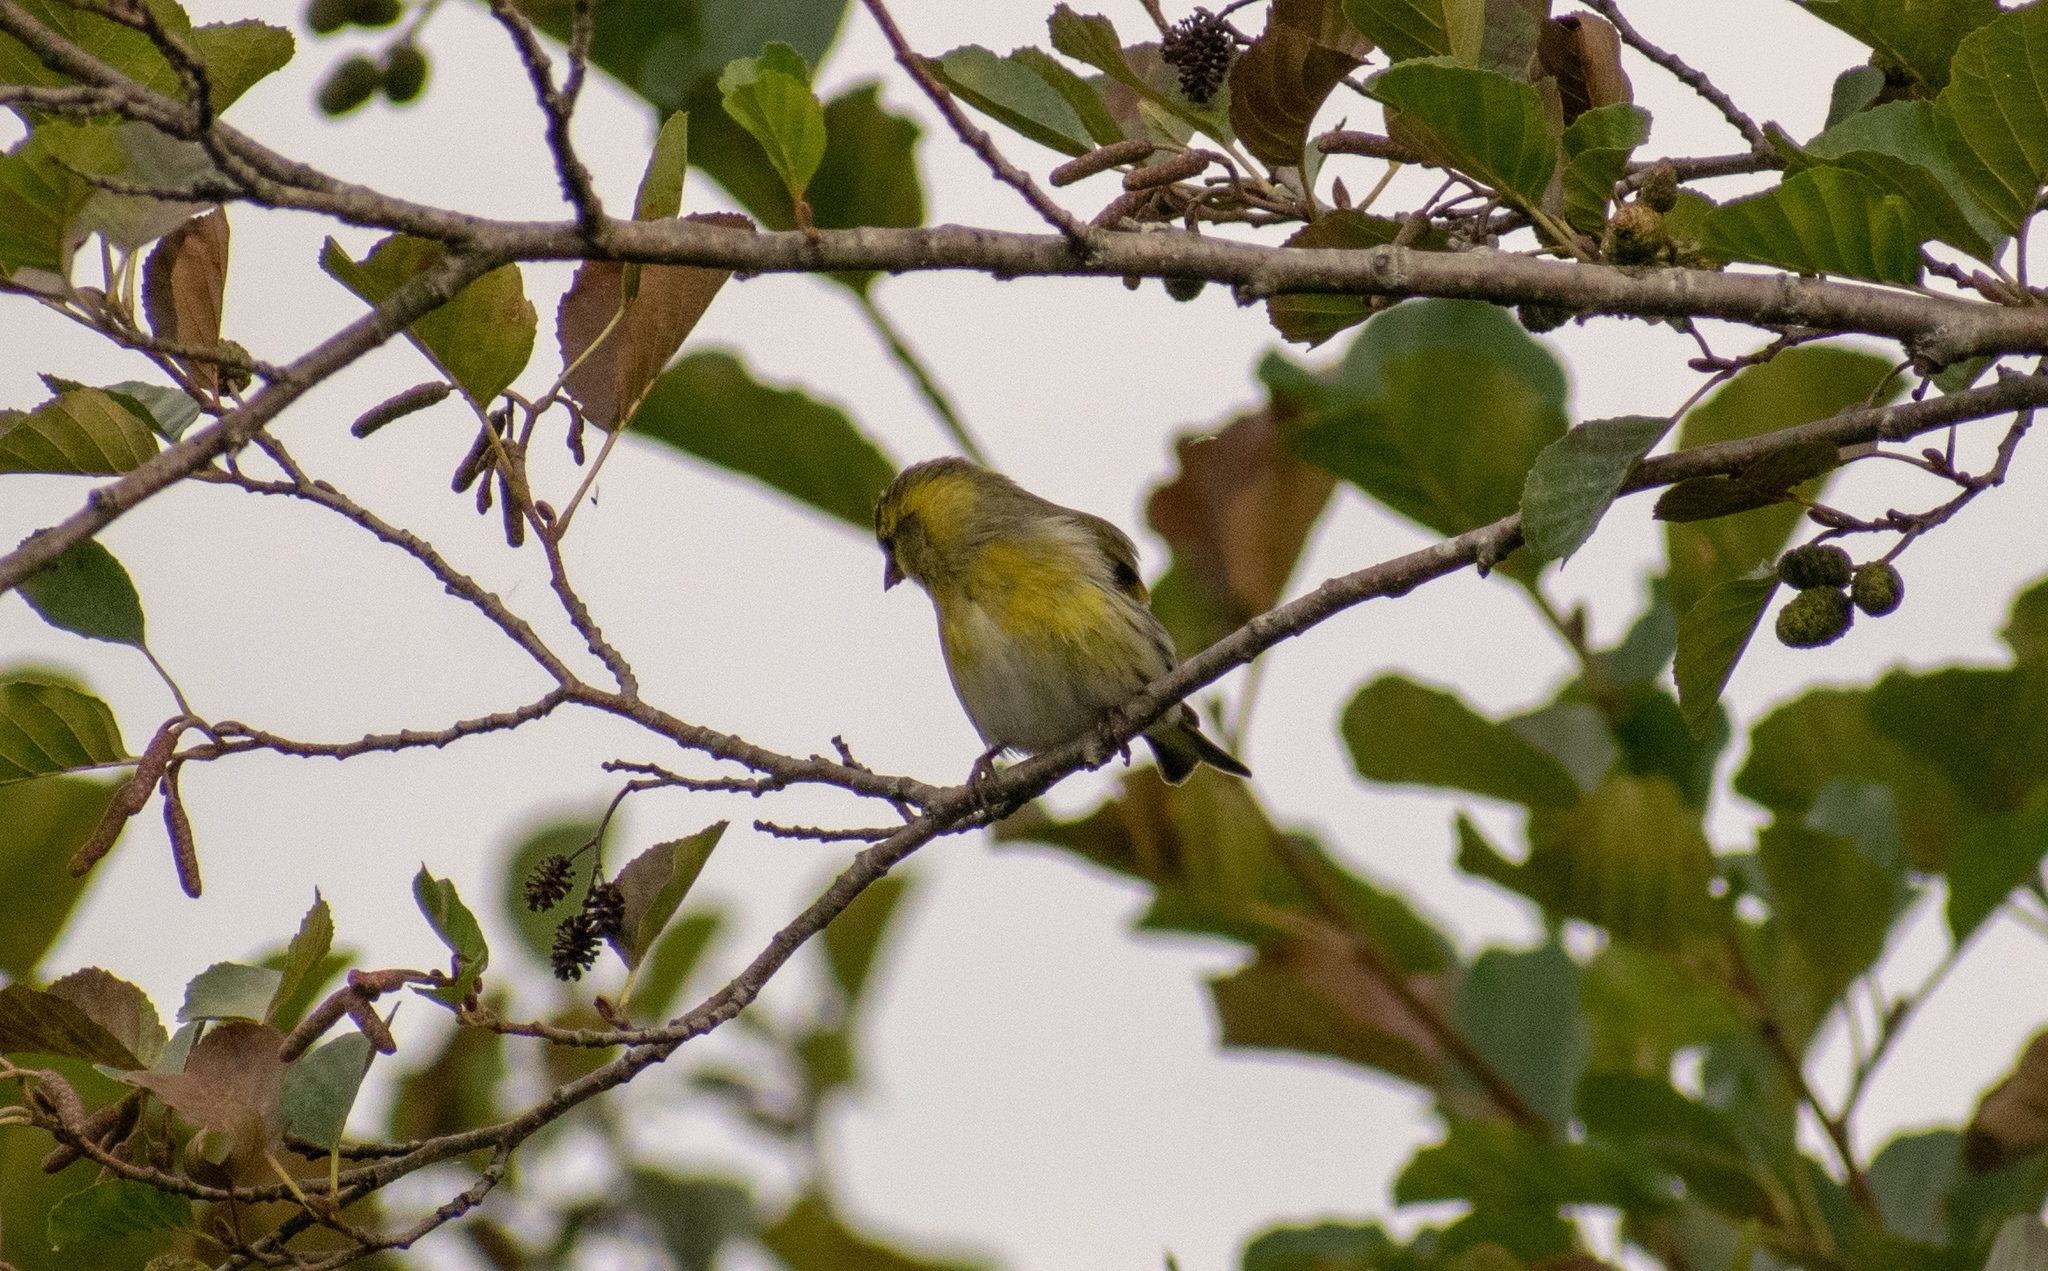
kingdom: Animalia
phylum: Chordata
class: Aves
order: Passeriformes
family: Fringillidae
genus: Spinus
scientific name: Spinus spinus
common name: Eurasian siskin
